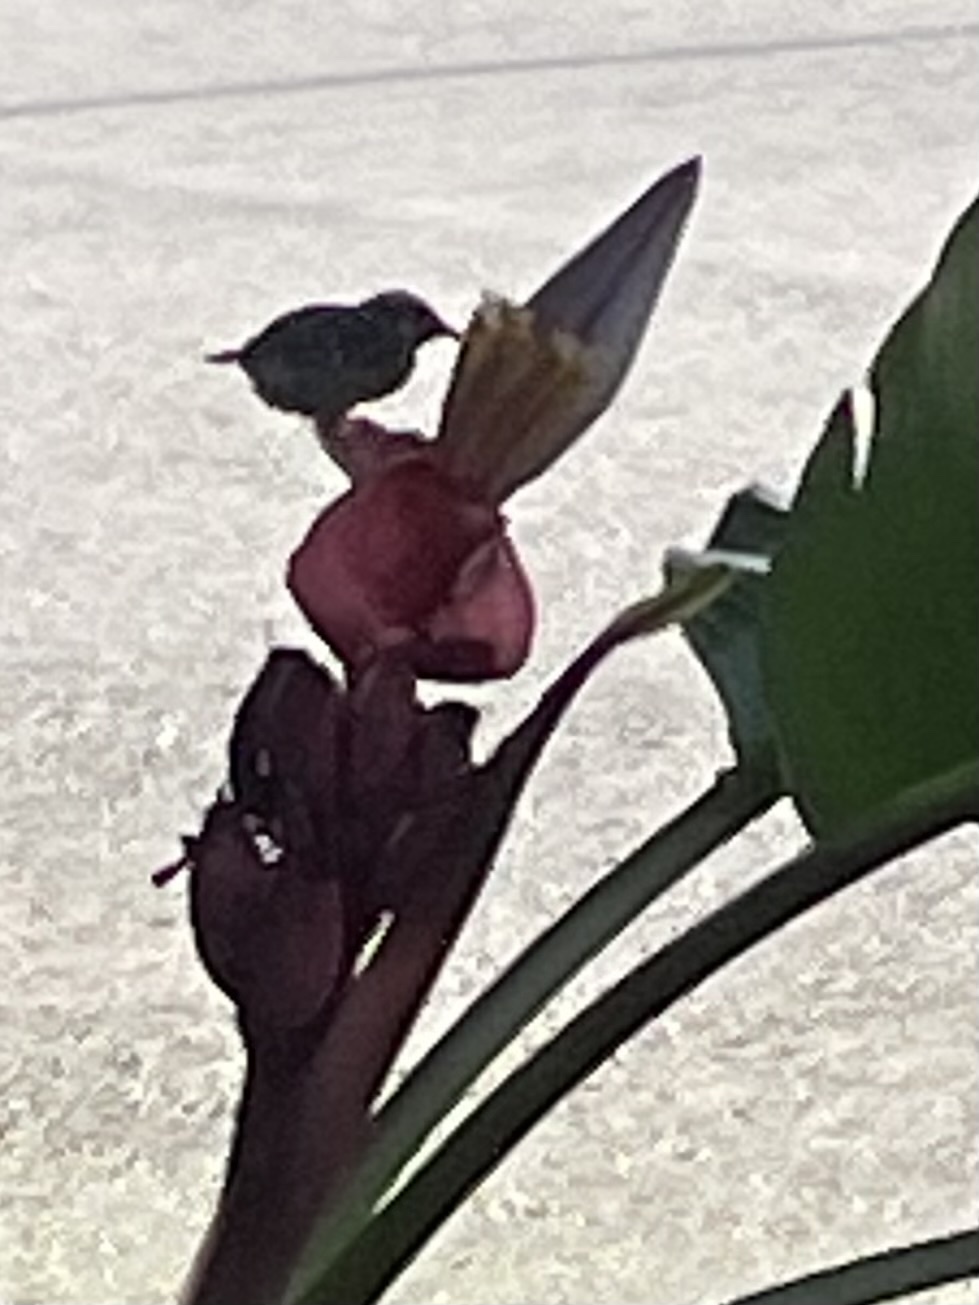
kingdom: Animalia
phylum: Chordata
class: Aves
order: Passeriformes
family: Thraupidae
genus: Coereba
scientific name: Coereba flaveola
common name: Bananaquit
